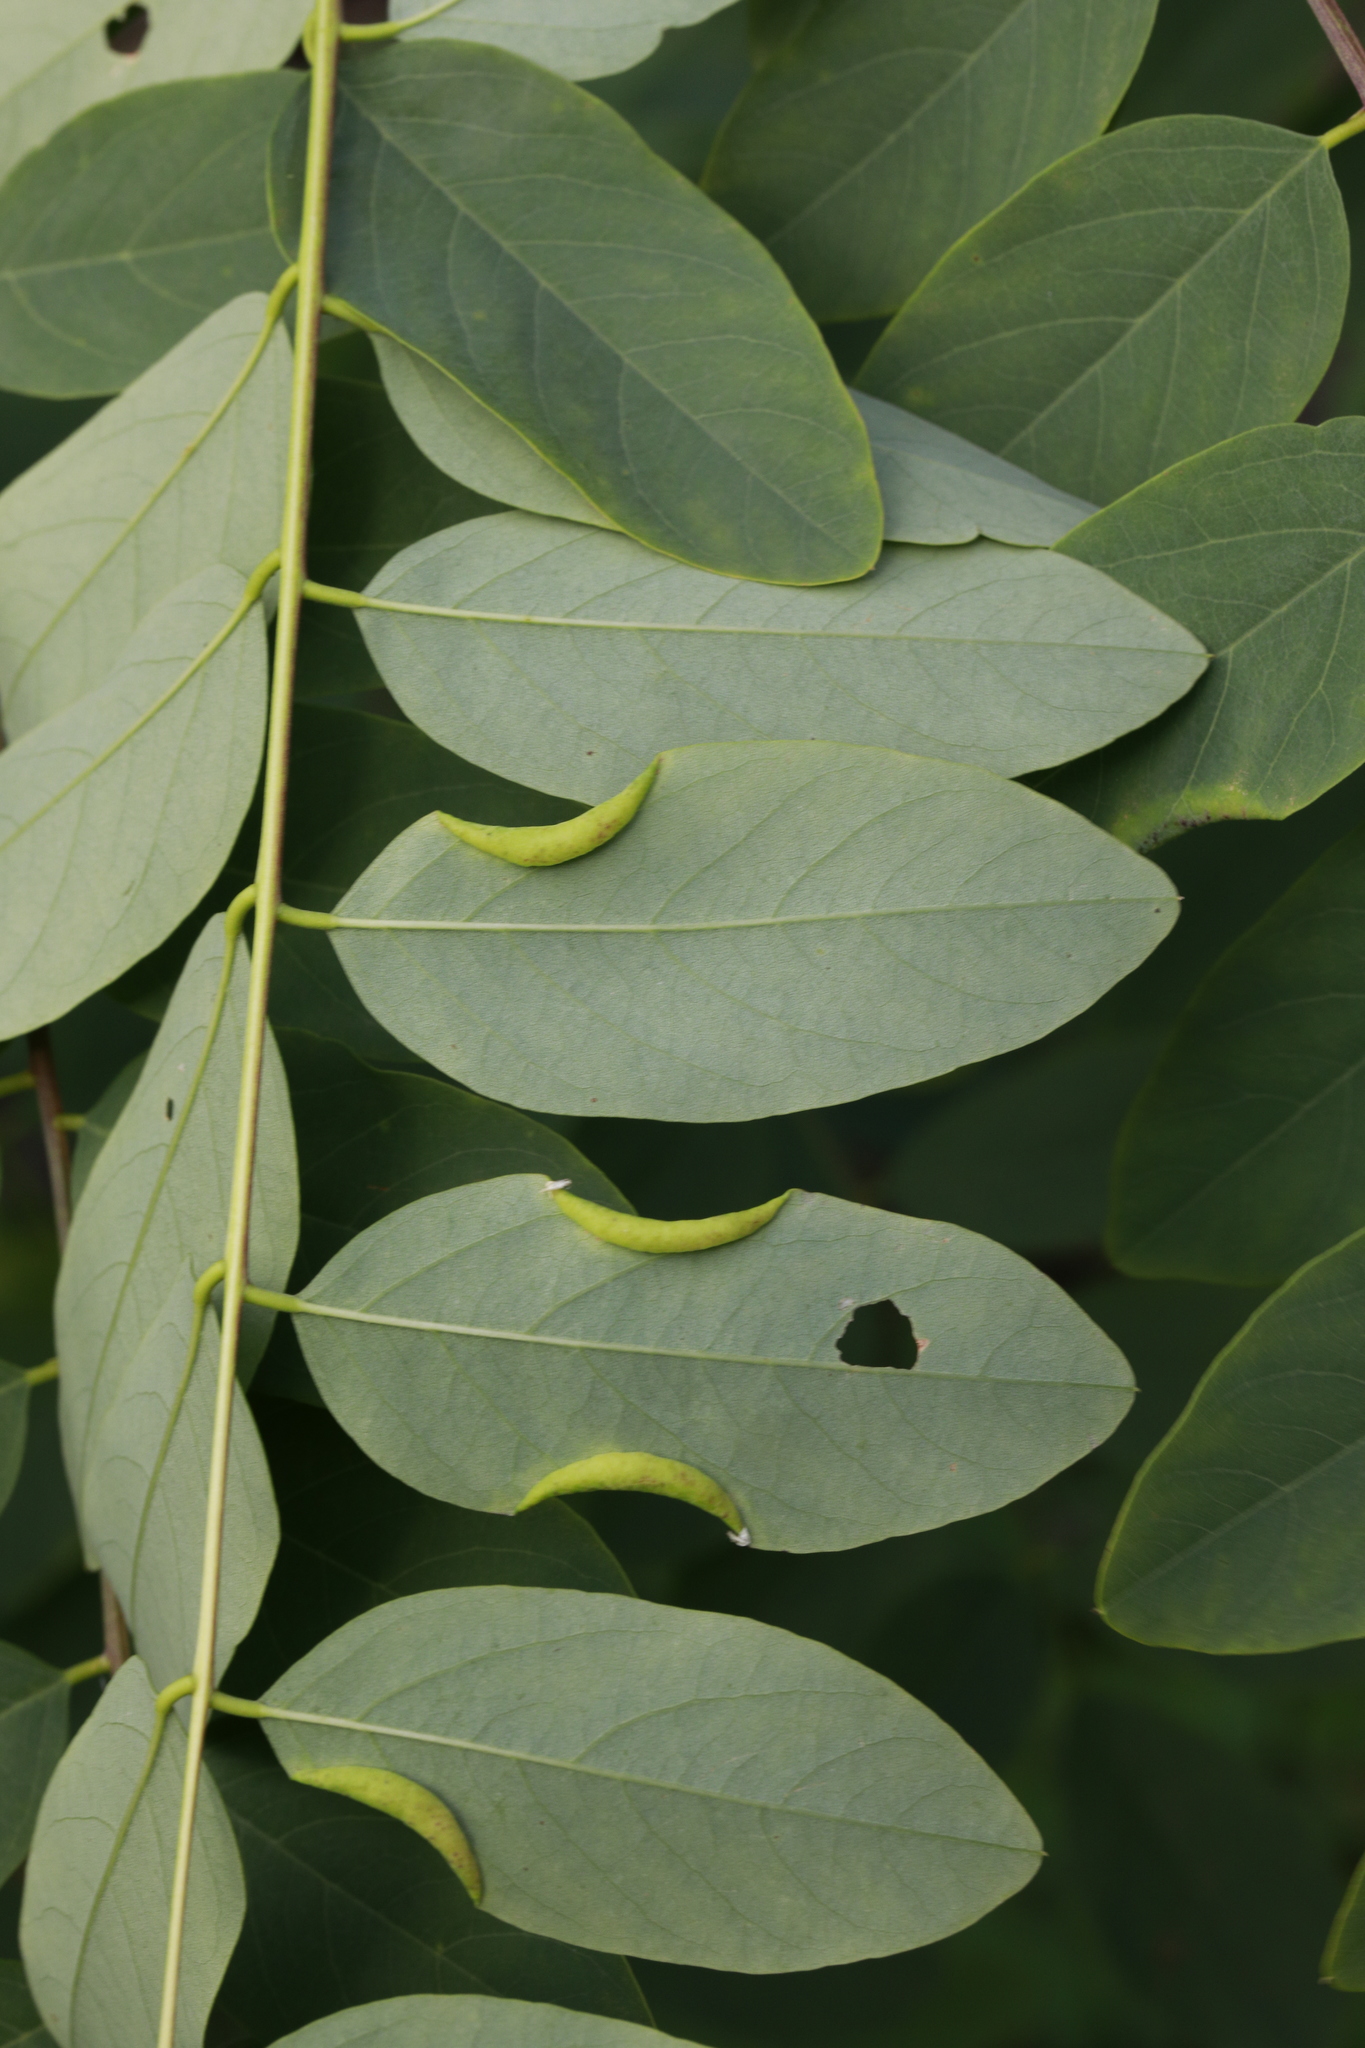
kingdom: Animalia
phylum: Arthropoda
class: Insecta
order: Diptera
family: Cecidomyiidae
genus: Obolodiplosis
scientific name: Obolodiplosis robiniae
